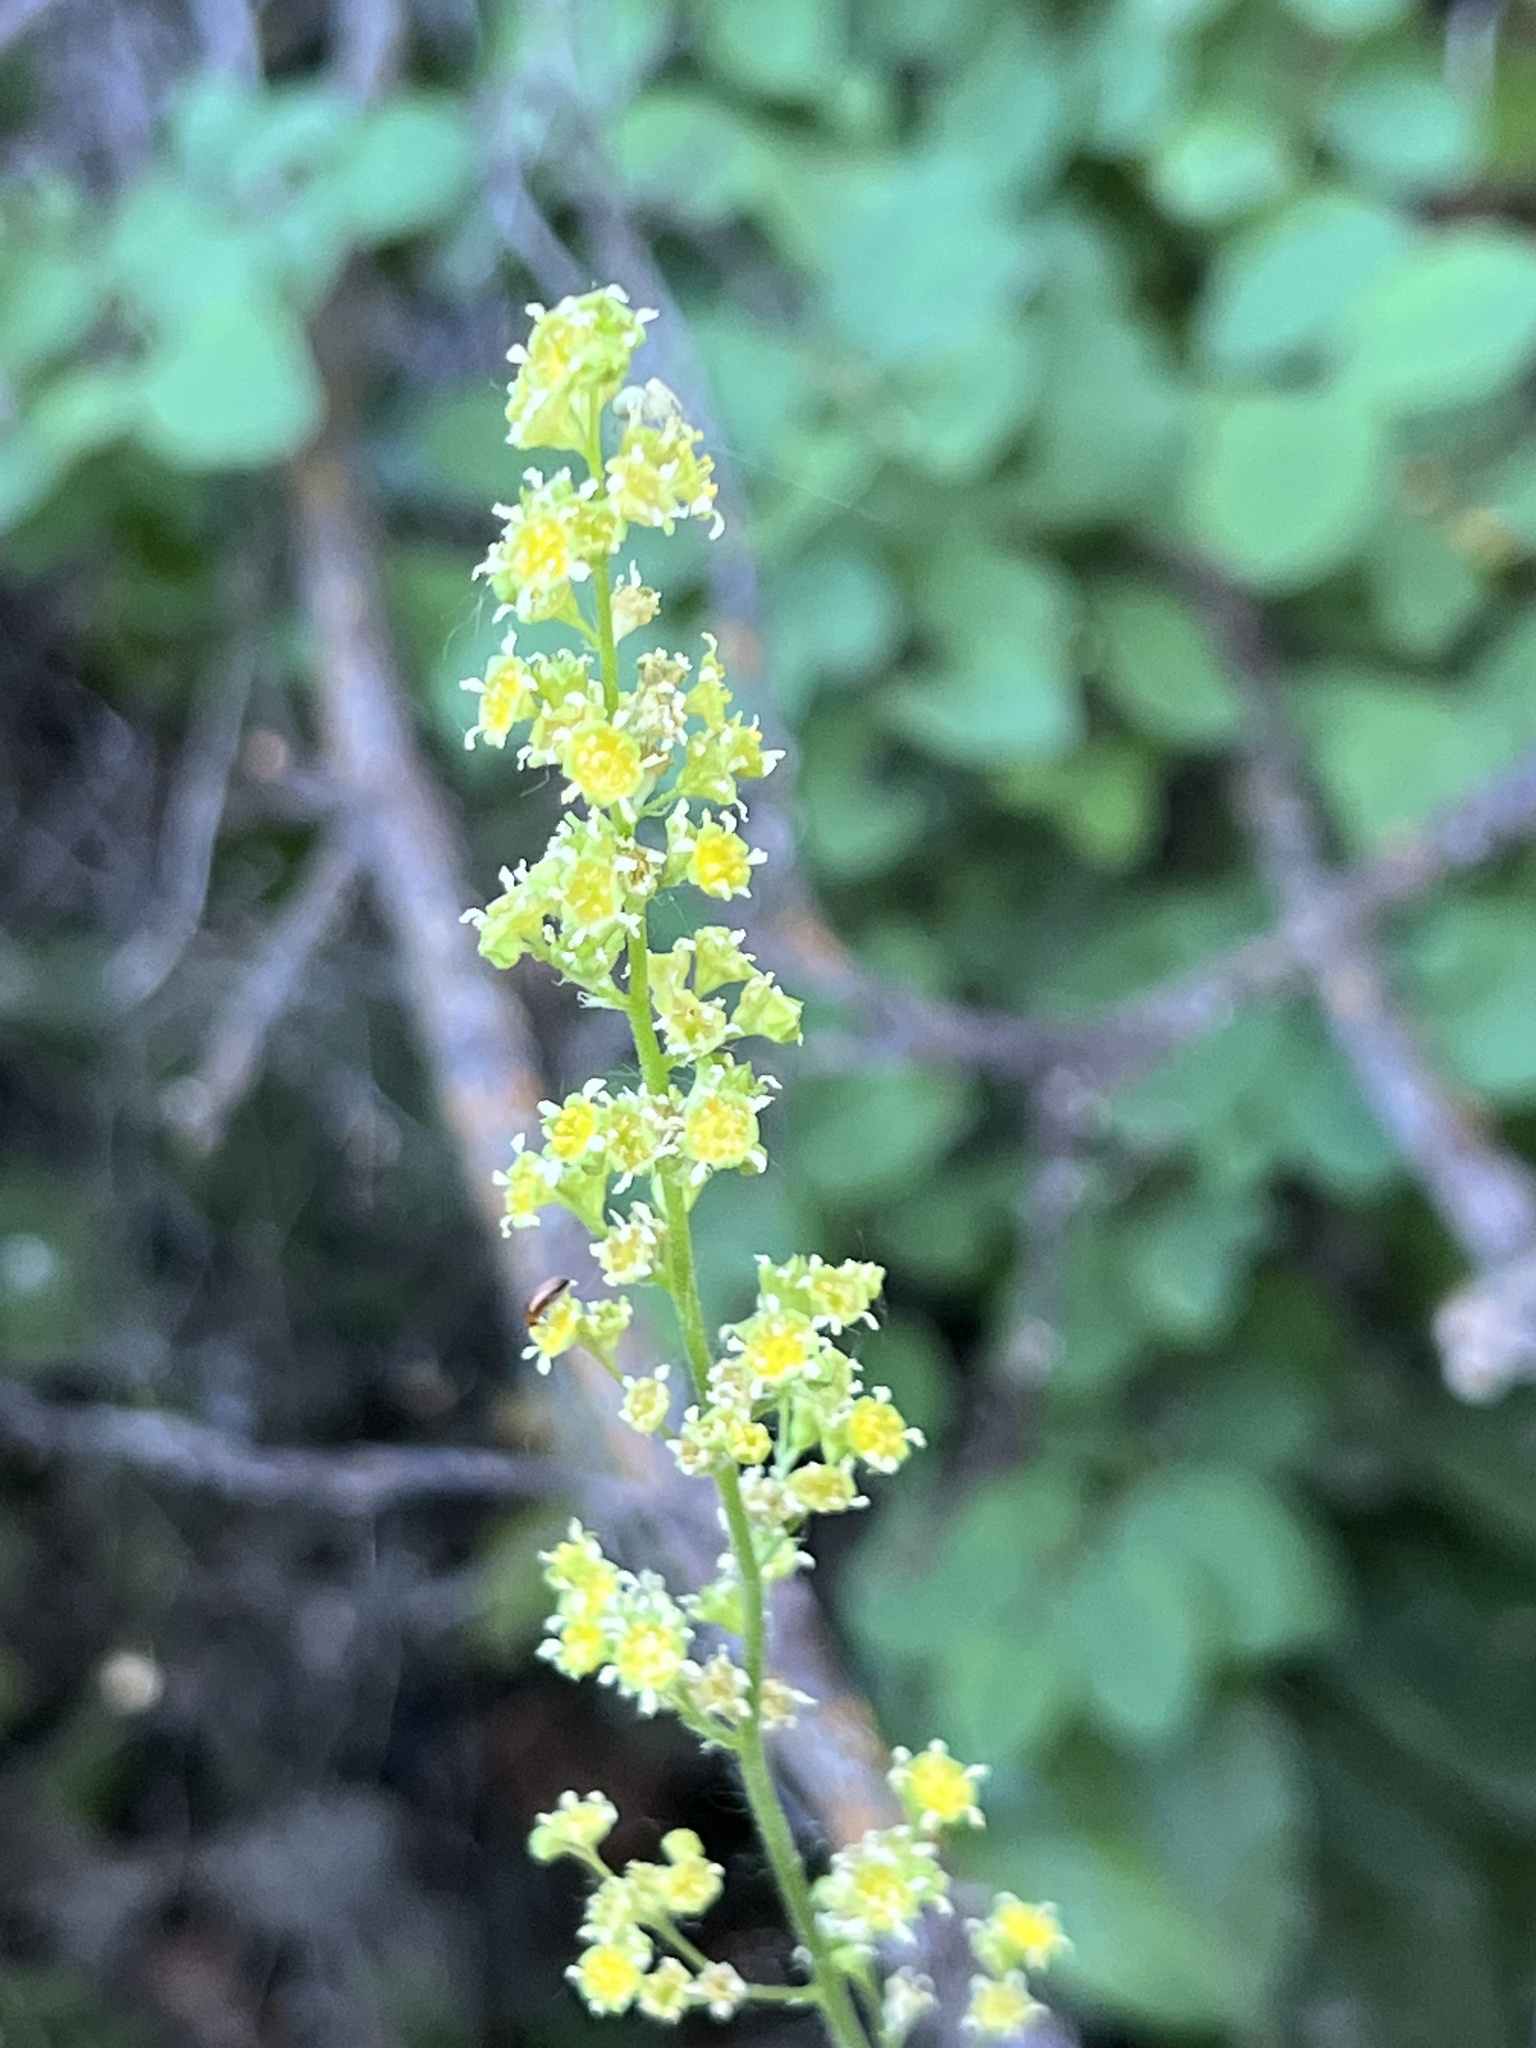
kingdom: Plantae
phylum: Tracheophyta
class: Magnoliopsida
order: Saxifragales
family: Saxifragaceae
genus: Heuchera
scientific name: Heuchera parvifolia
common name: Common alumroot
